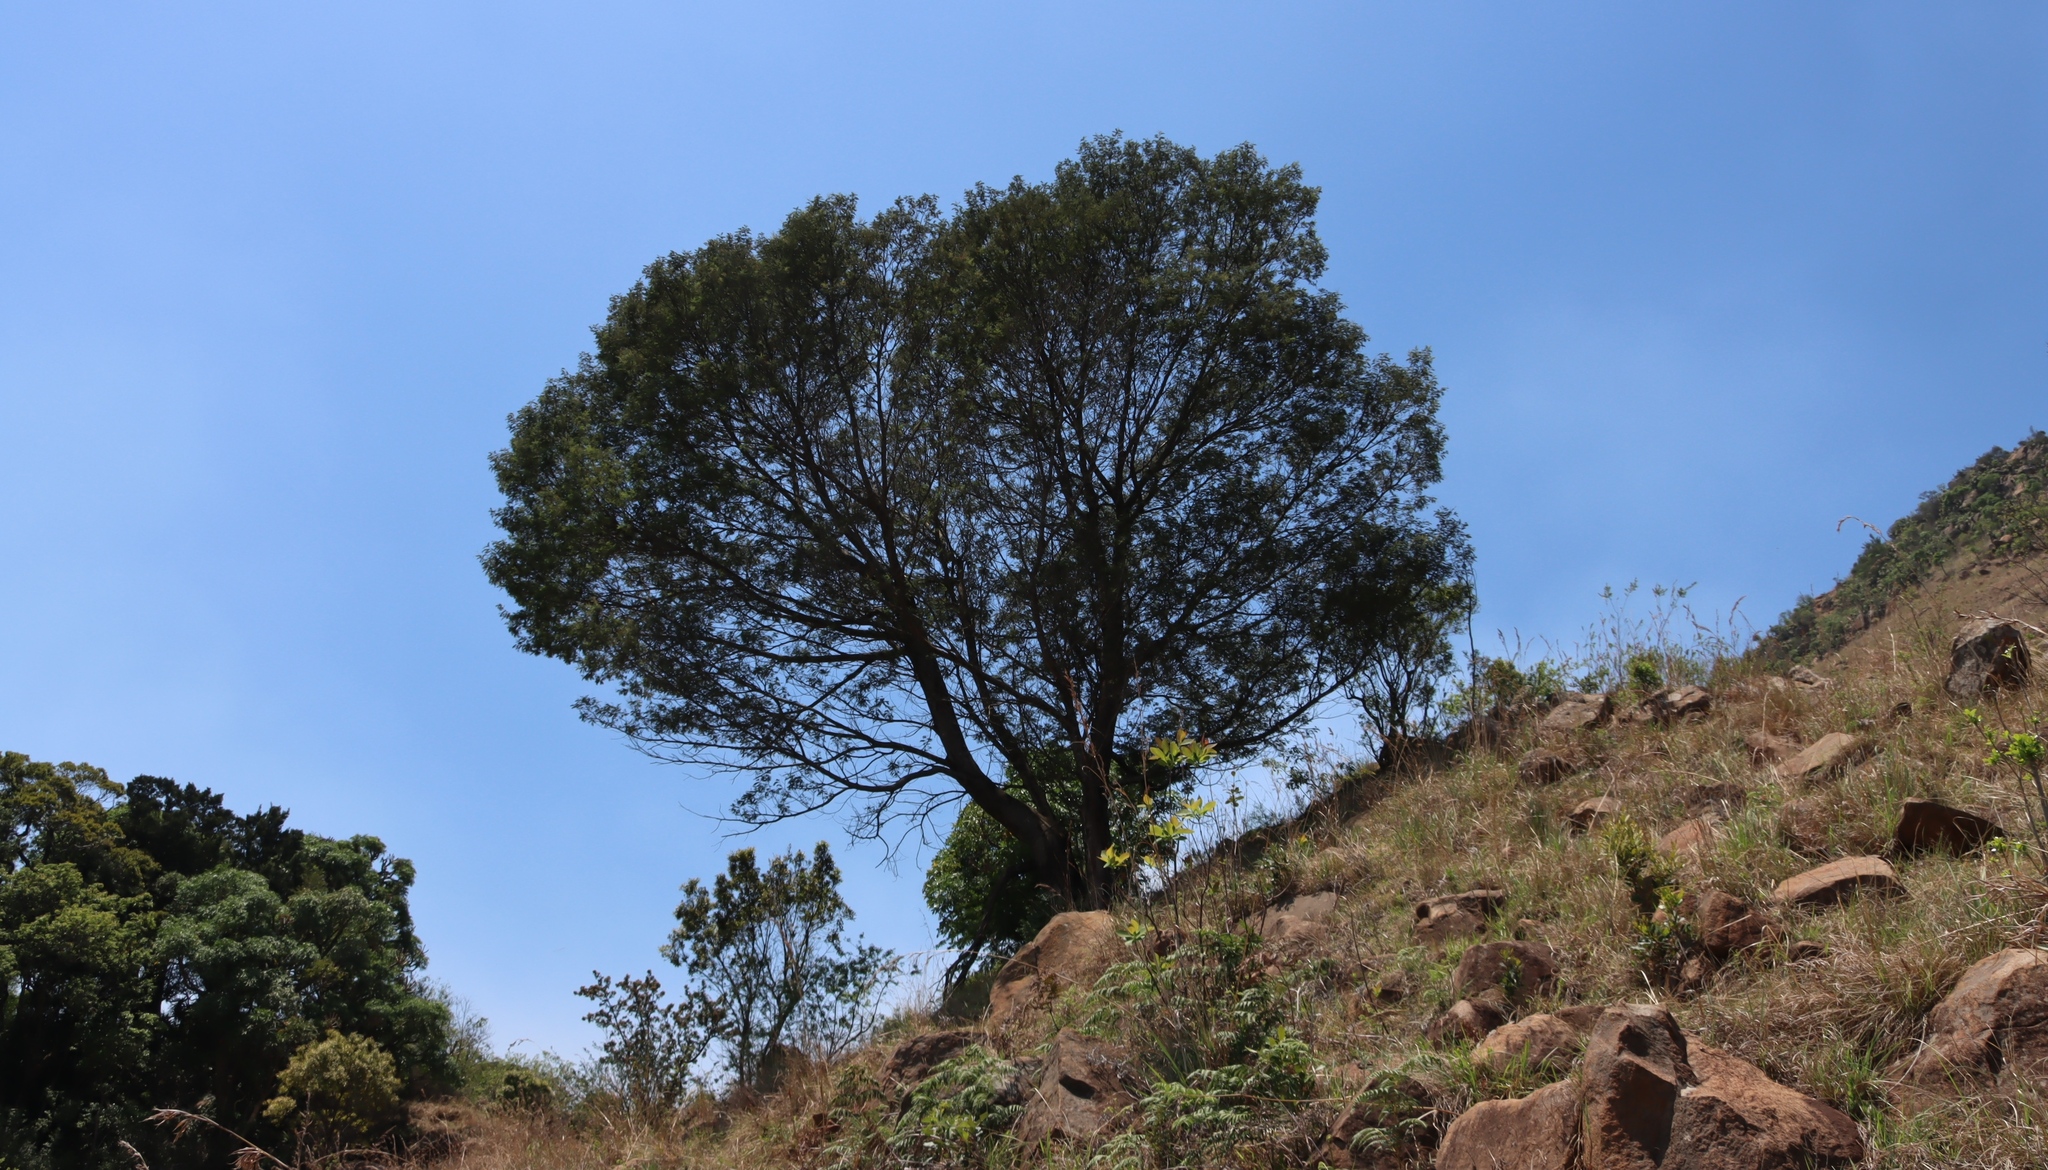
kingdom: Plantae
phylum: Tracheophyta
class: Magnoliopsida
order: Fabales
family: Fabaceae
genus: Acacia
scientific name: Acacia mearnsii
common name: Black wattle
